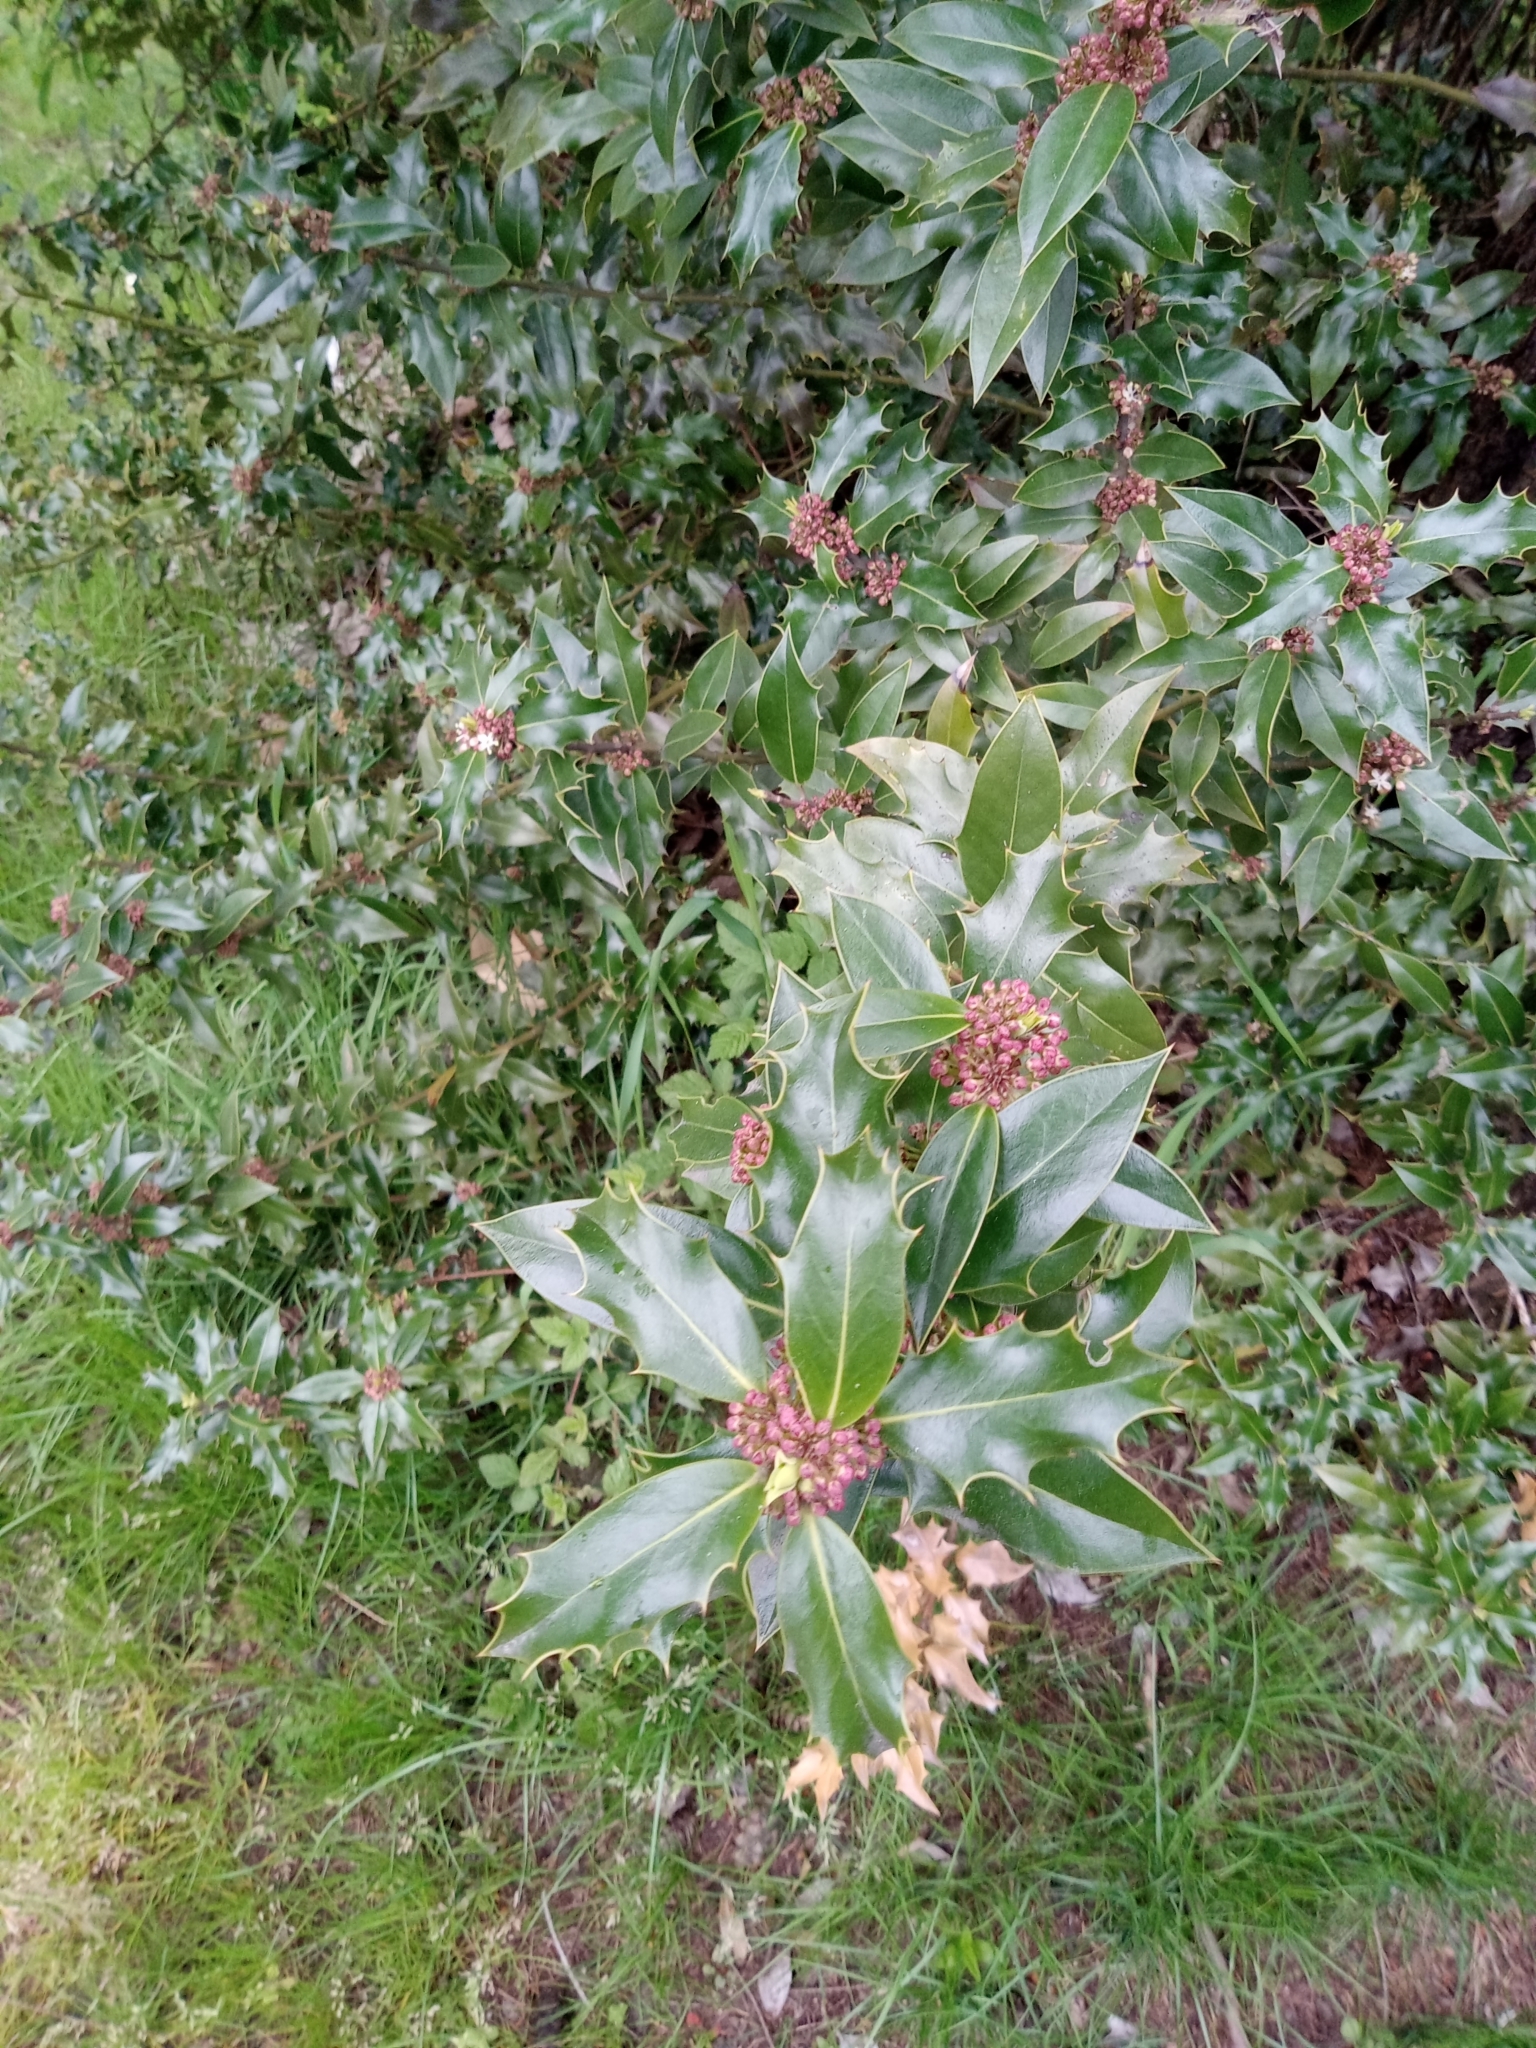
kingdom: Plantae
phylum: Tracheophyta
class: Magnoliopsida
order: Aquifoliales
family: Aquifoliaceae
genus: Ilex
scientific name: Ilex aquifolium
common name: English holly
